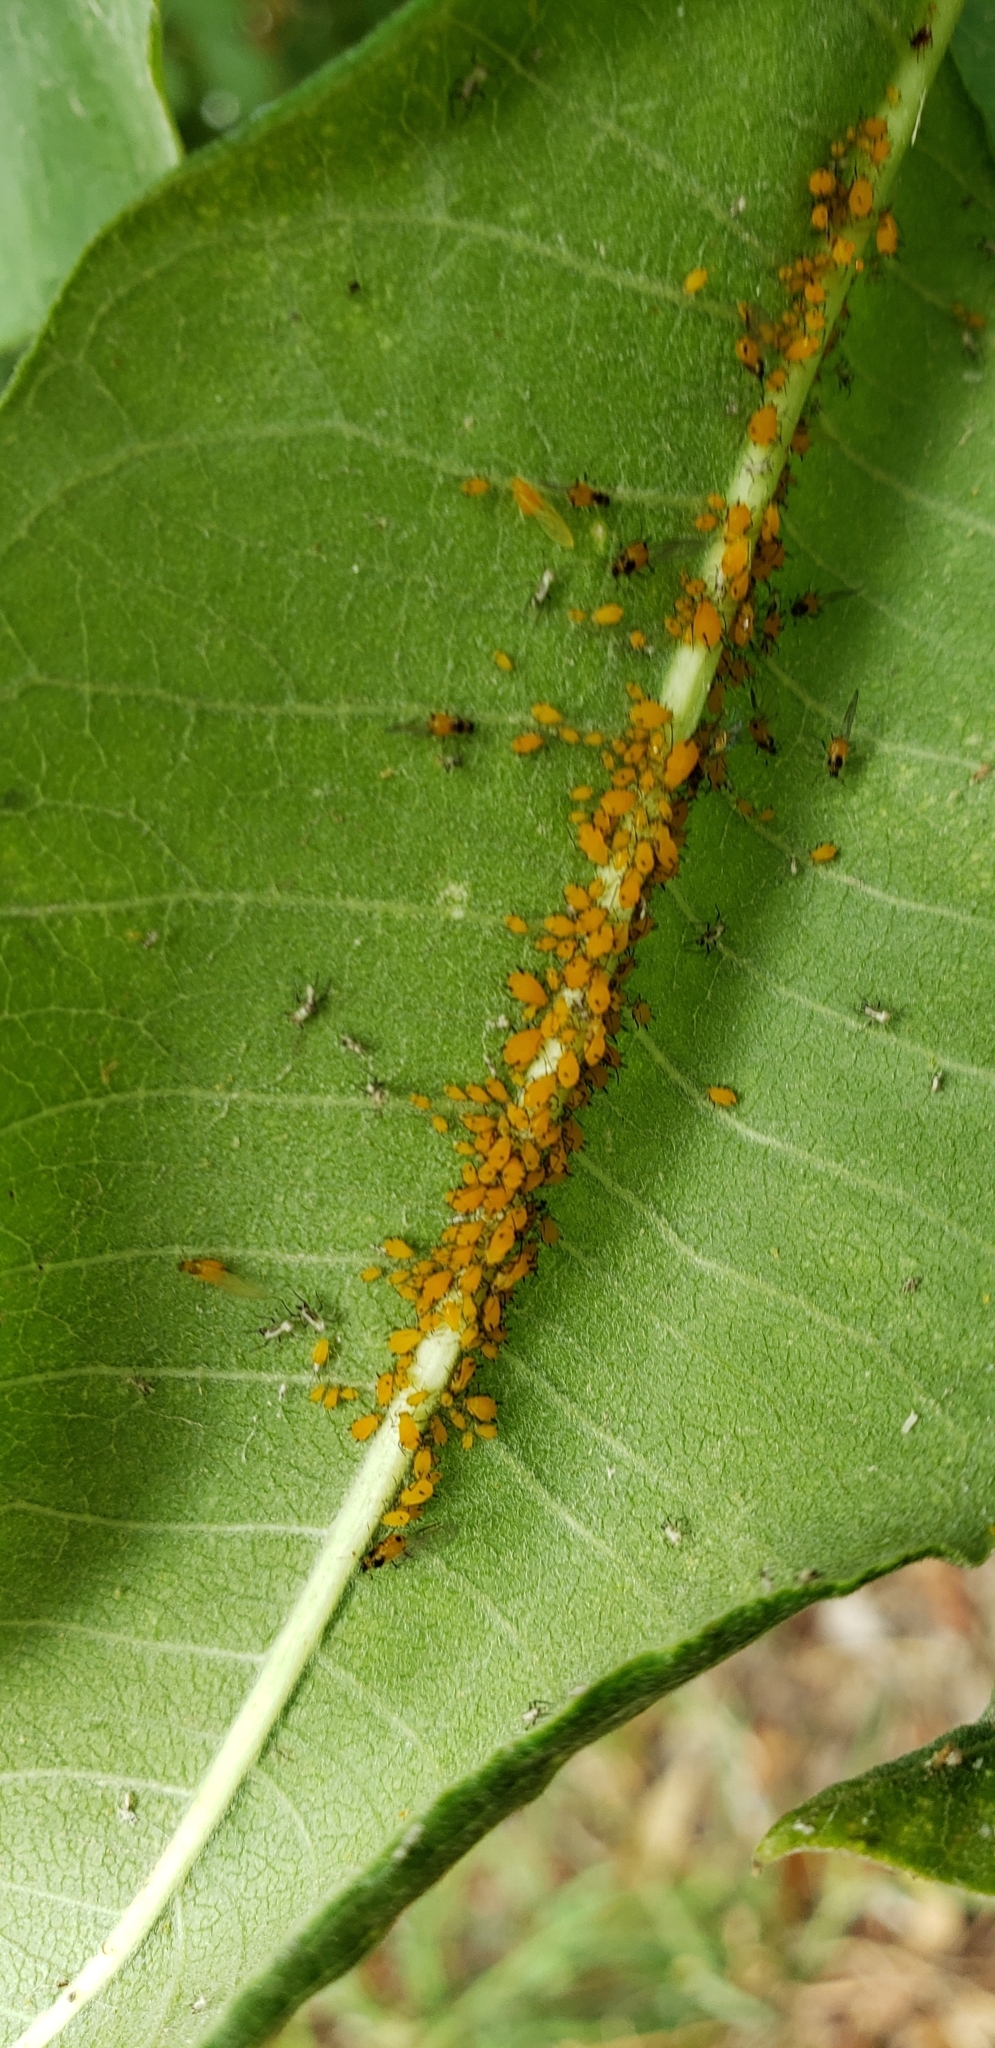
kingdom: Animalia
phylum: Arthropoda
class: Insecta
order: Hemiptera
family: Aphididae
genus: Aphis
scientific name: Aphis nerii
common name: Oleander aphid
